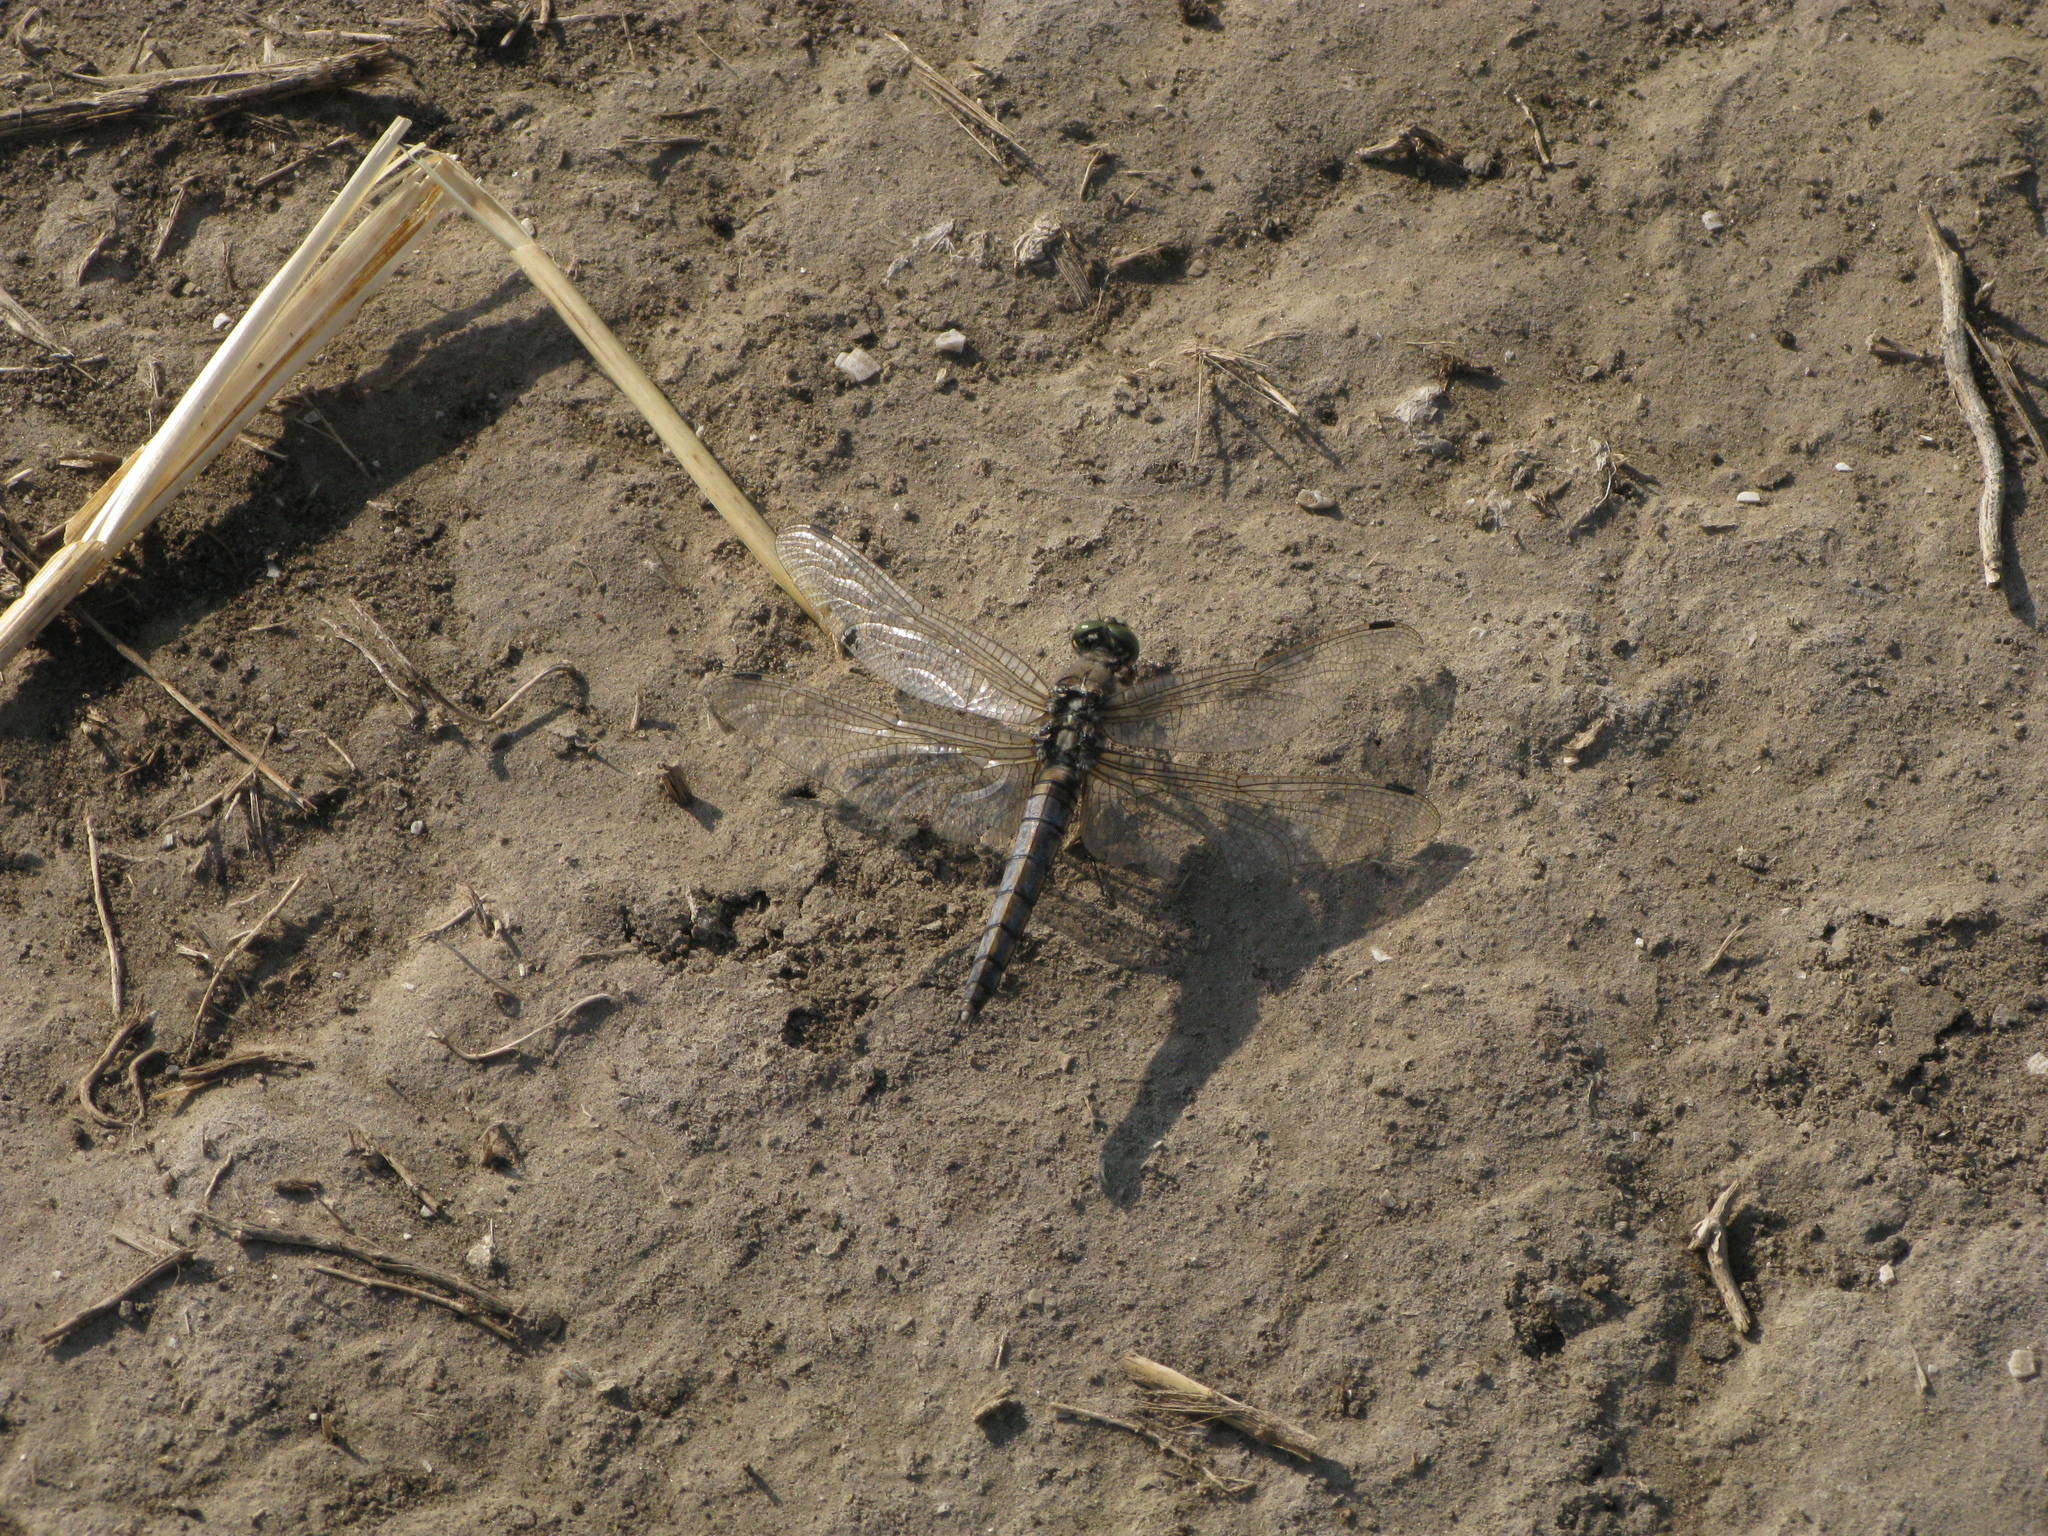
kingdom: Animalia
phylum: Arthropoda
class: Insecta
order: Odonata
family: Libellulidae
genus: Orthetrum
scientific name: Orthetrum cancellatum
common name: Black-tailed skimmer
